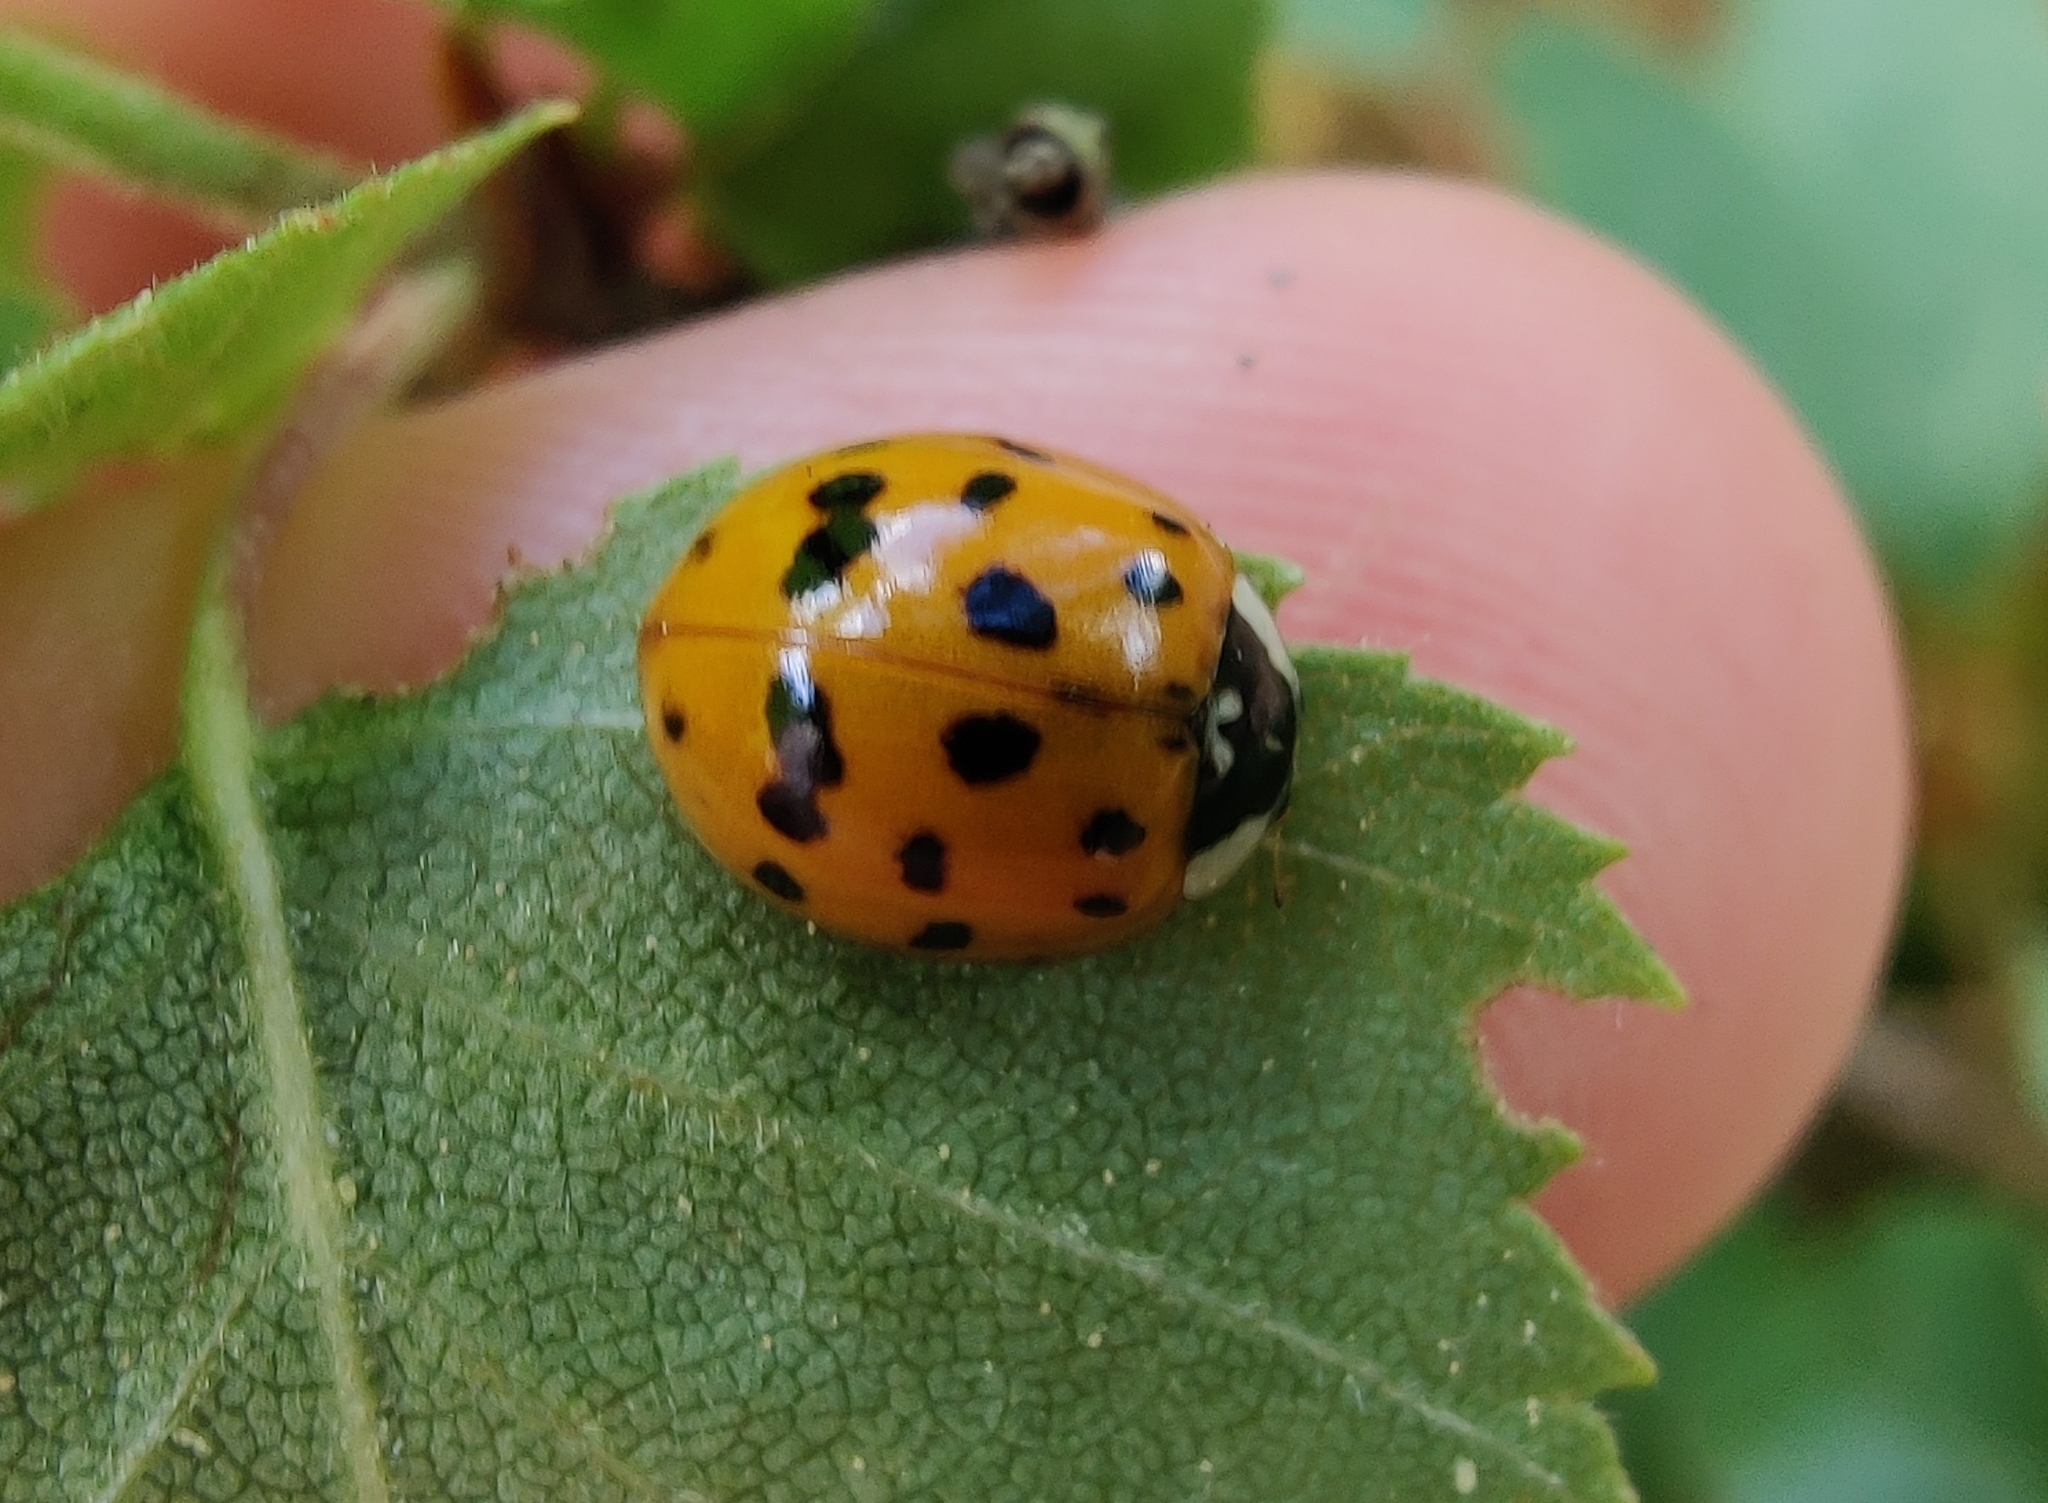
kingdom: Animalia
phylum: Arthropoda
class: Insecta
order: Coleoptera
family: Coccinellidae
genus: Harmonia
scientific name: Harmonia axyridis
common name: Harlequin ladybird
